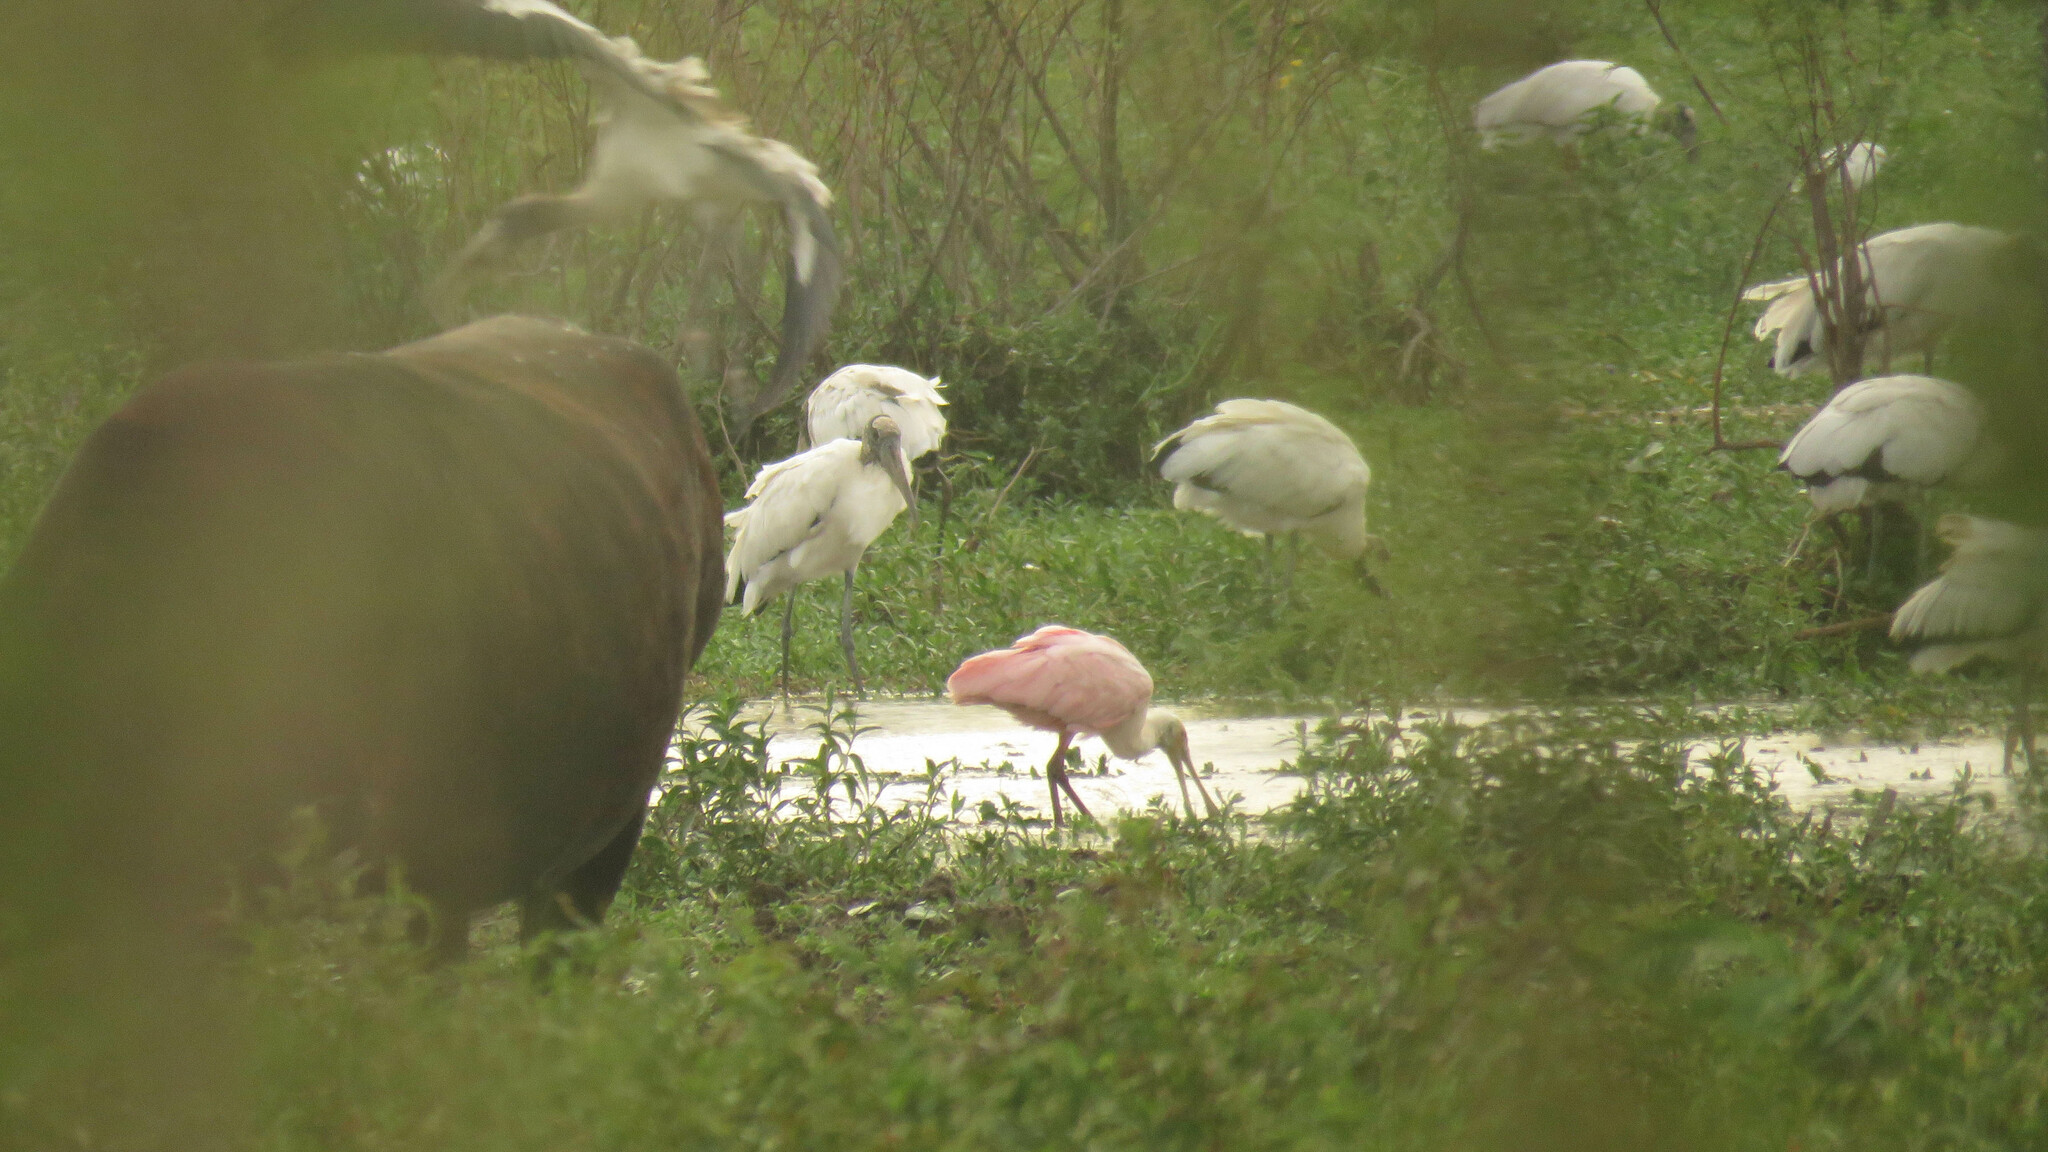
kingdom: Animalia
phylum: Chordata
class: Aves
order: Pelecaniformes
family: Threskiornithidae
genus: Platalea
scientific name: Platalea ajaja
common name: Roseate spoonbill
